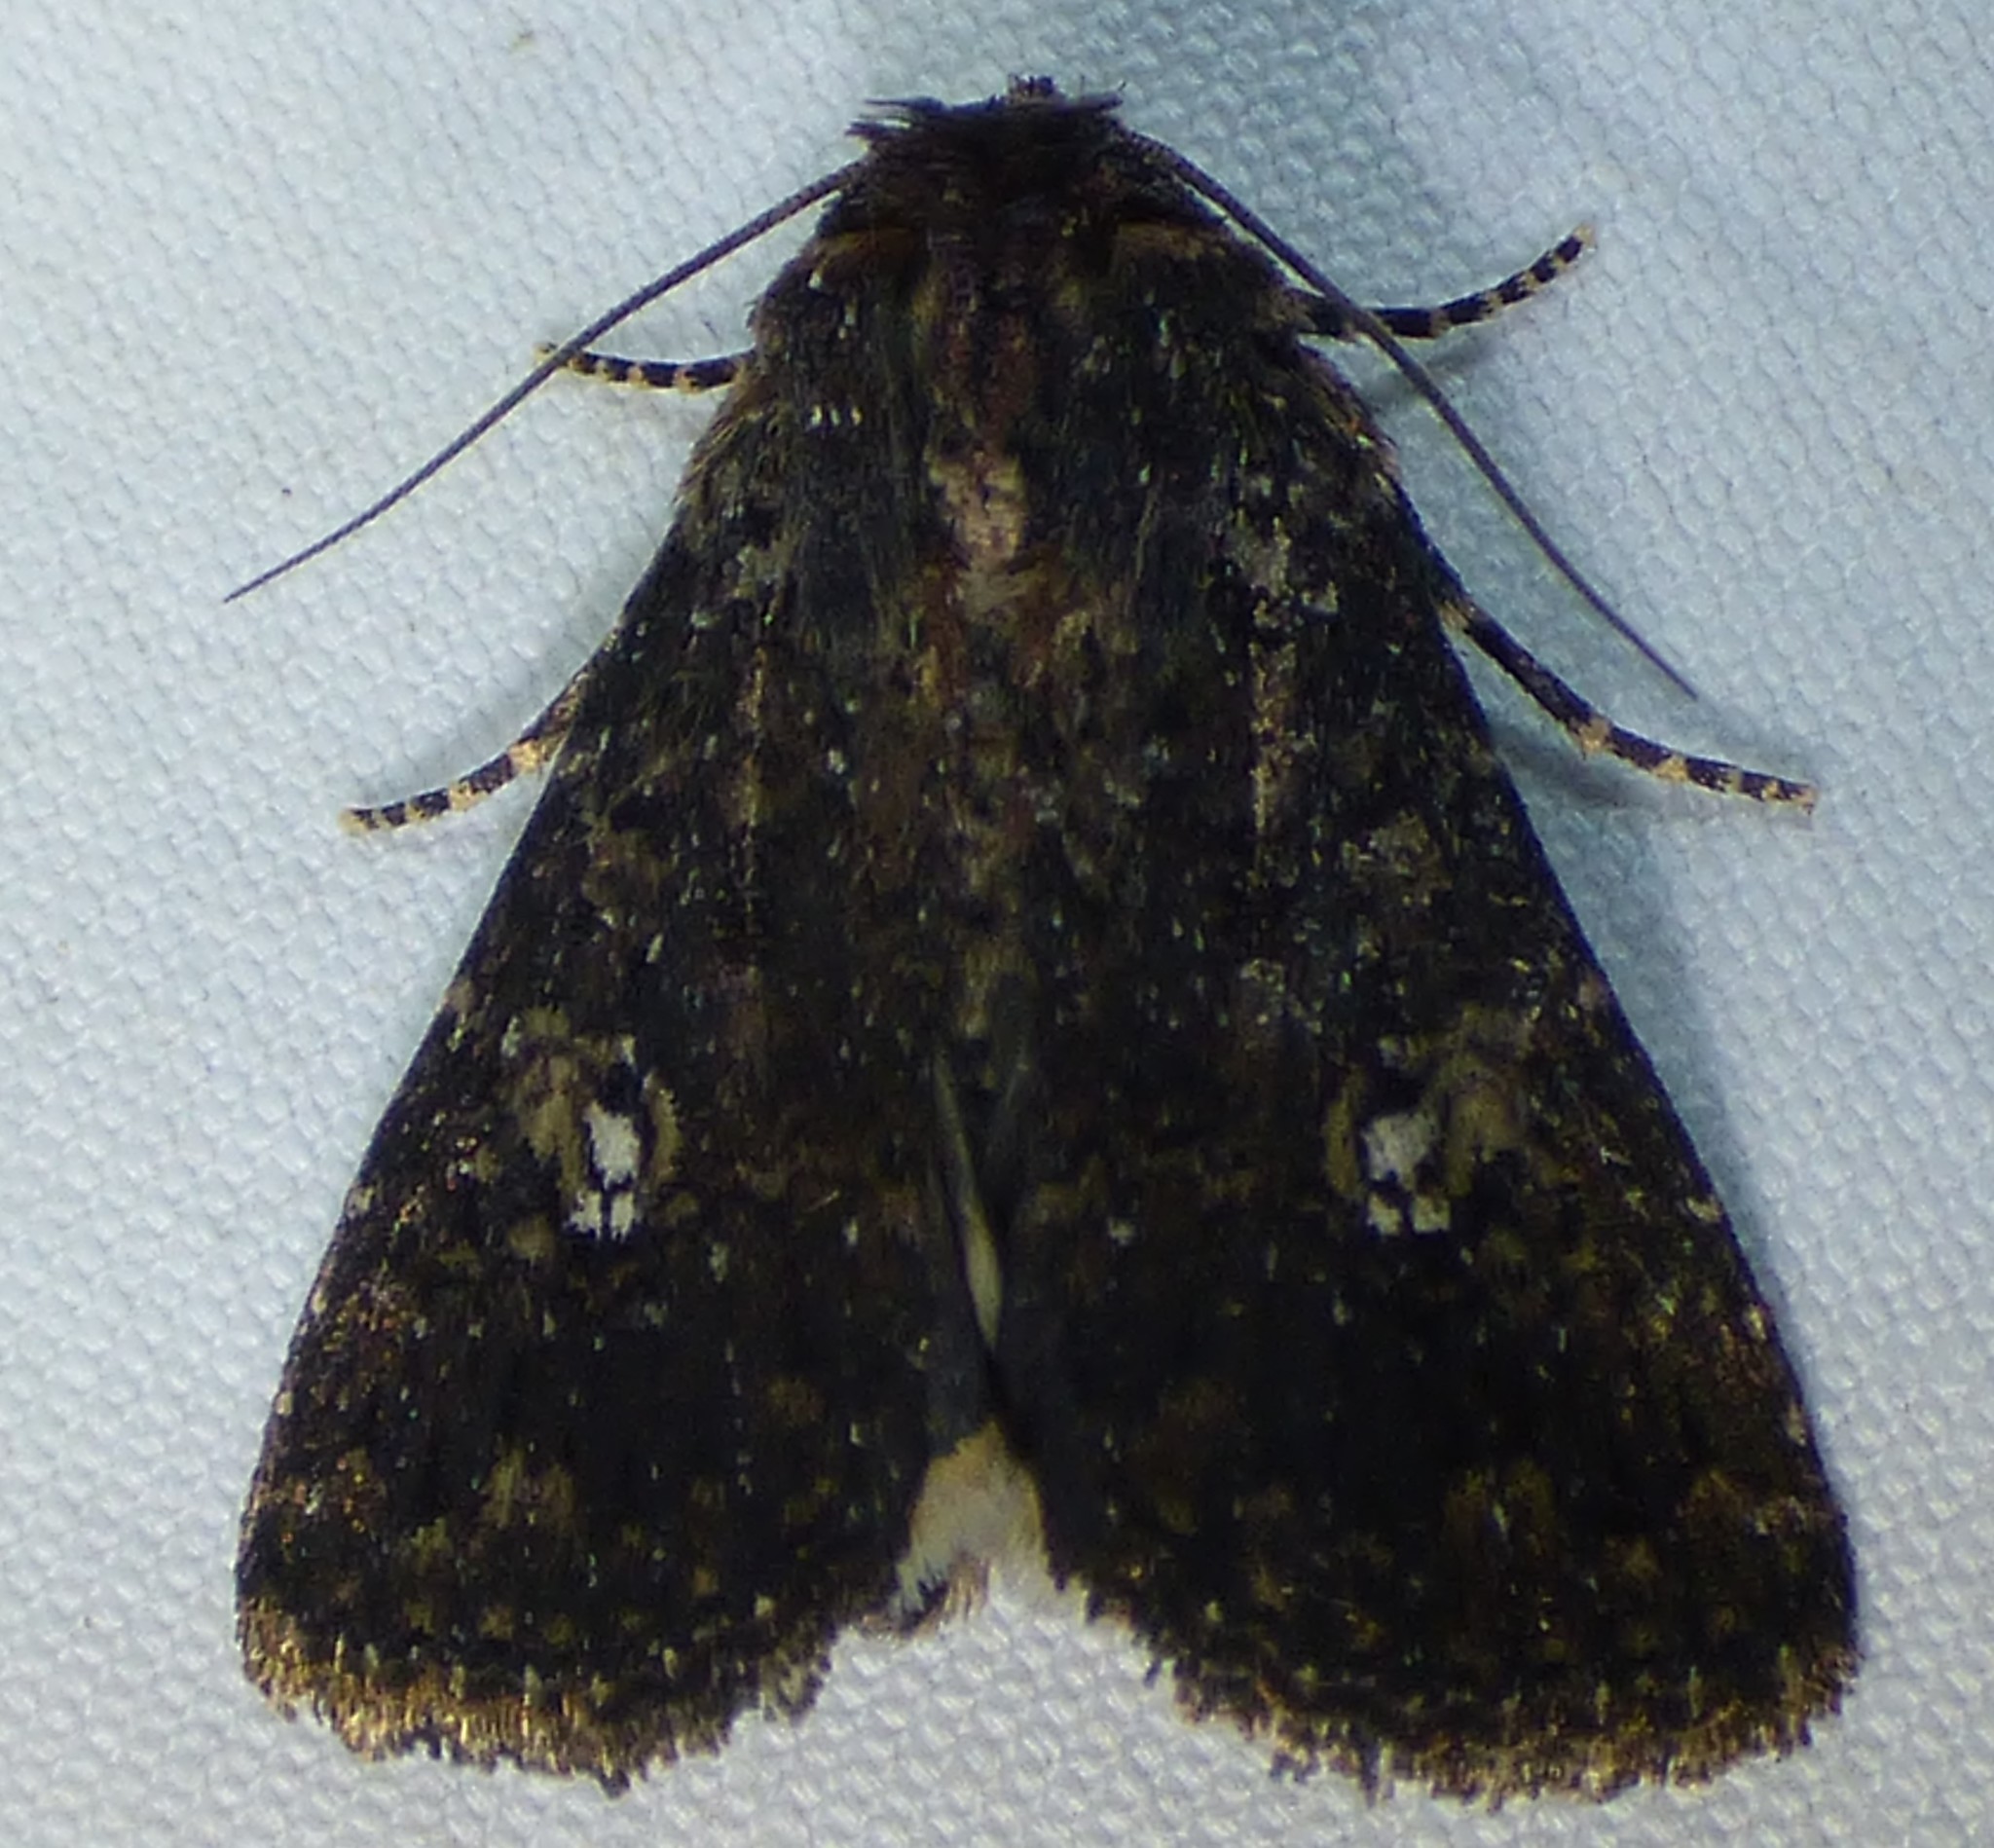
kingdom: Animalia
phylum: Arthropoda
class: Insecta
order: Lepidoptera
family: Noctuidae
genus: Condica
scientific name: Condica vecors
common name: Dusky groundling
